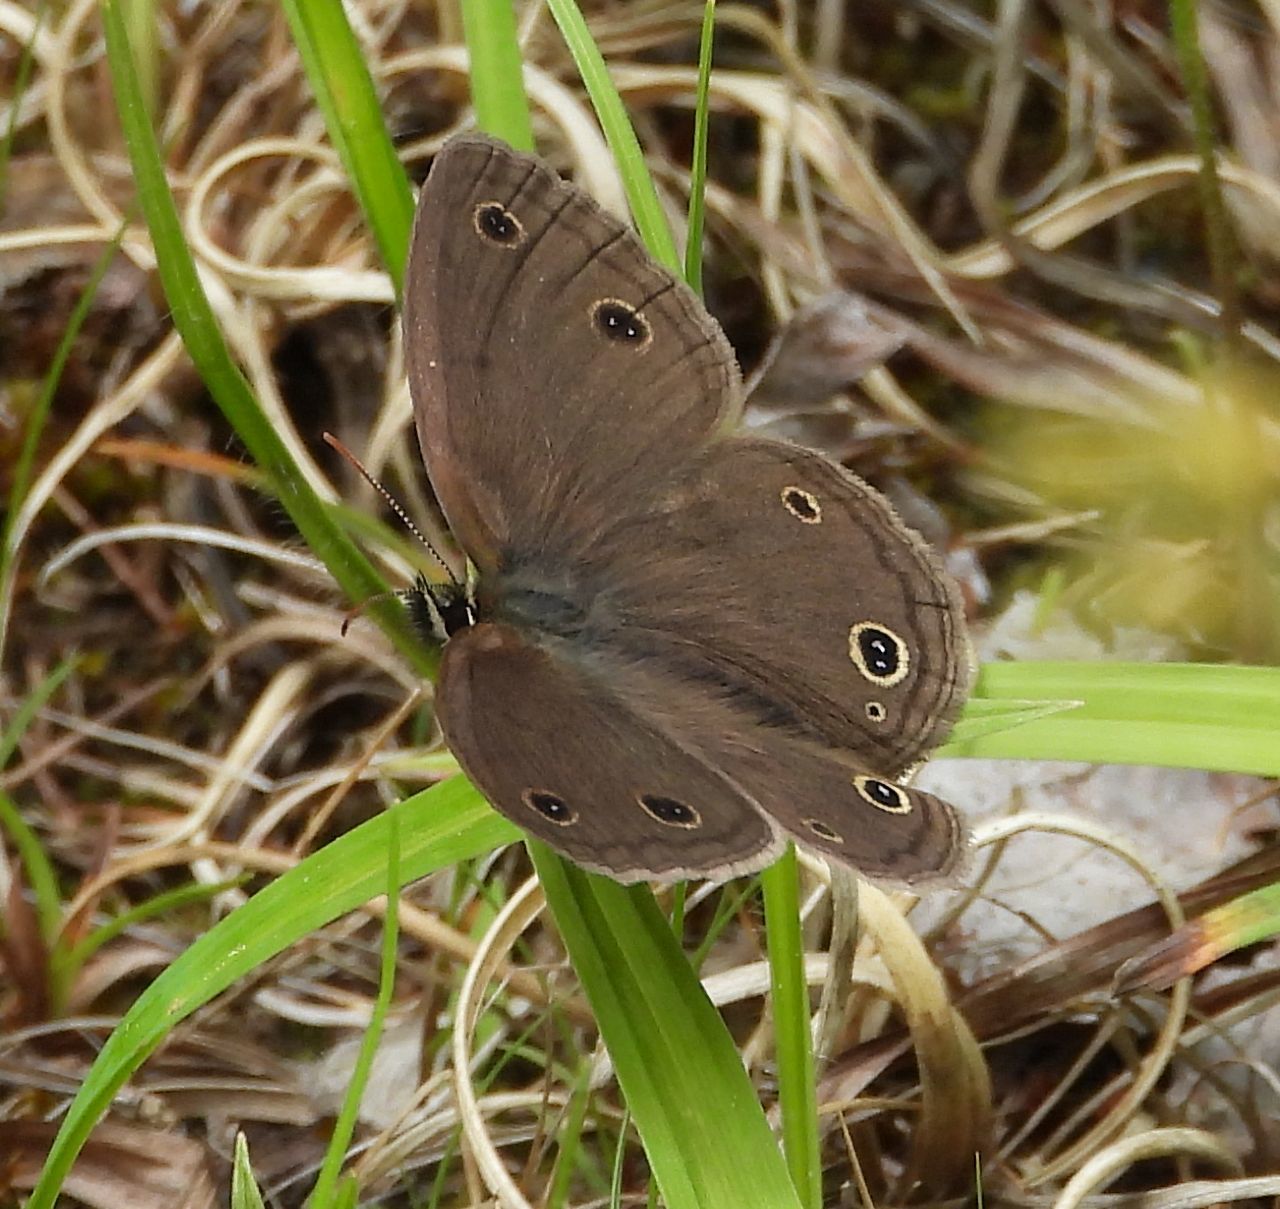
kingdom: Animalia
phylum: Arthropoda
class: Insecta
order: Lepidoptera
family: Nymphalidae
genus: Euptychia
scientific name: Euptychia cymela
